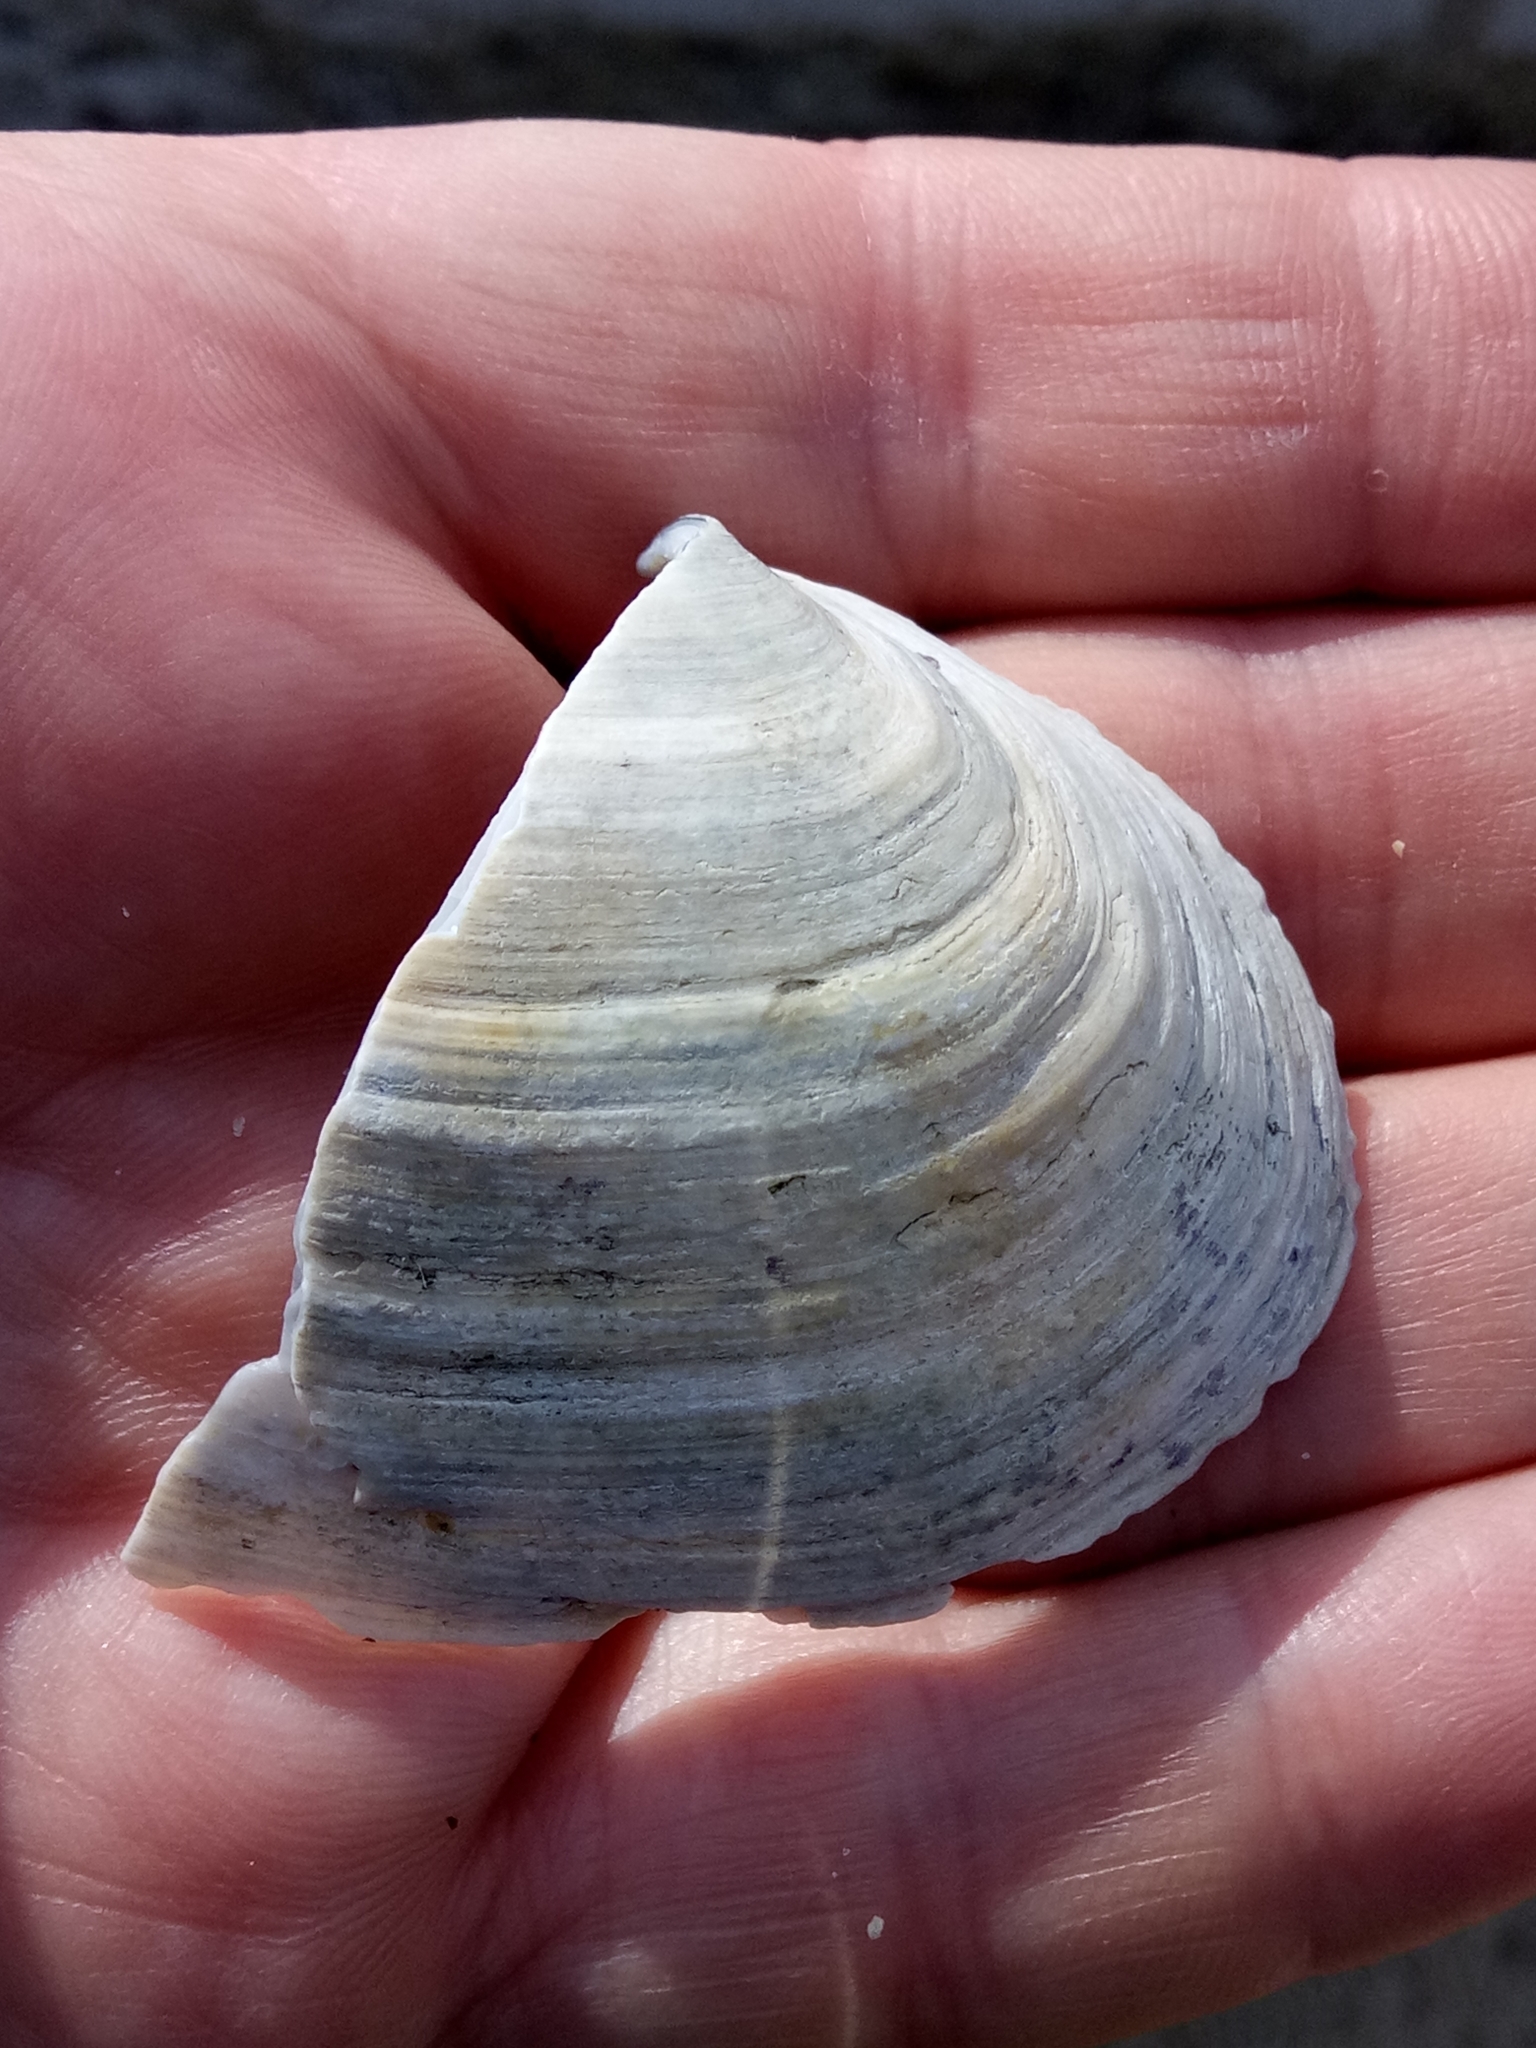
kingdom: Animalia
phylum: Mollusca
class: Bivalvia
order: Myida
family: Myidae
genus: Mya
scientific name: Mya arenaria
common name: Soft-shelled clam
